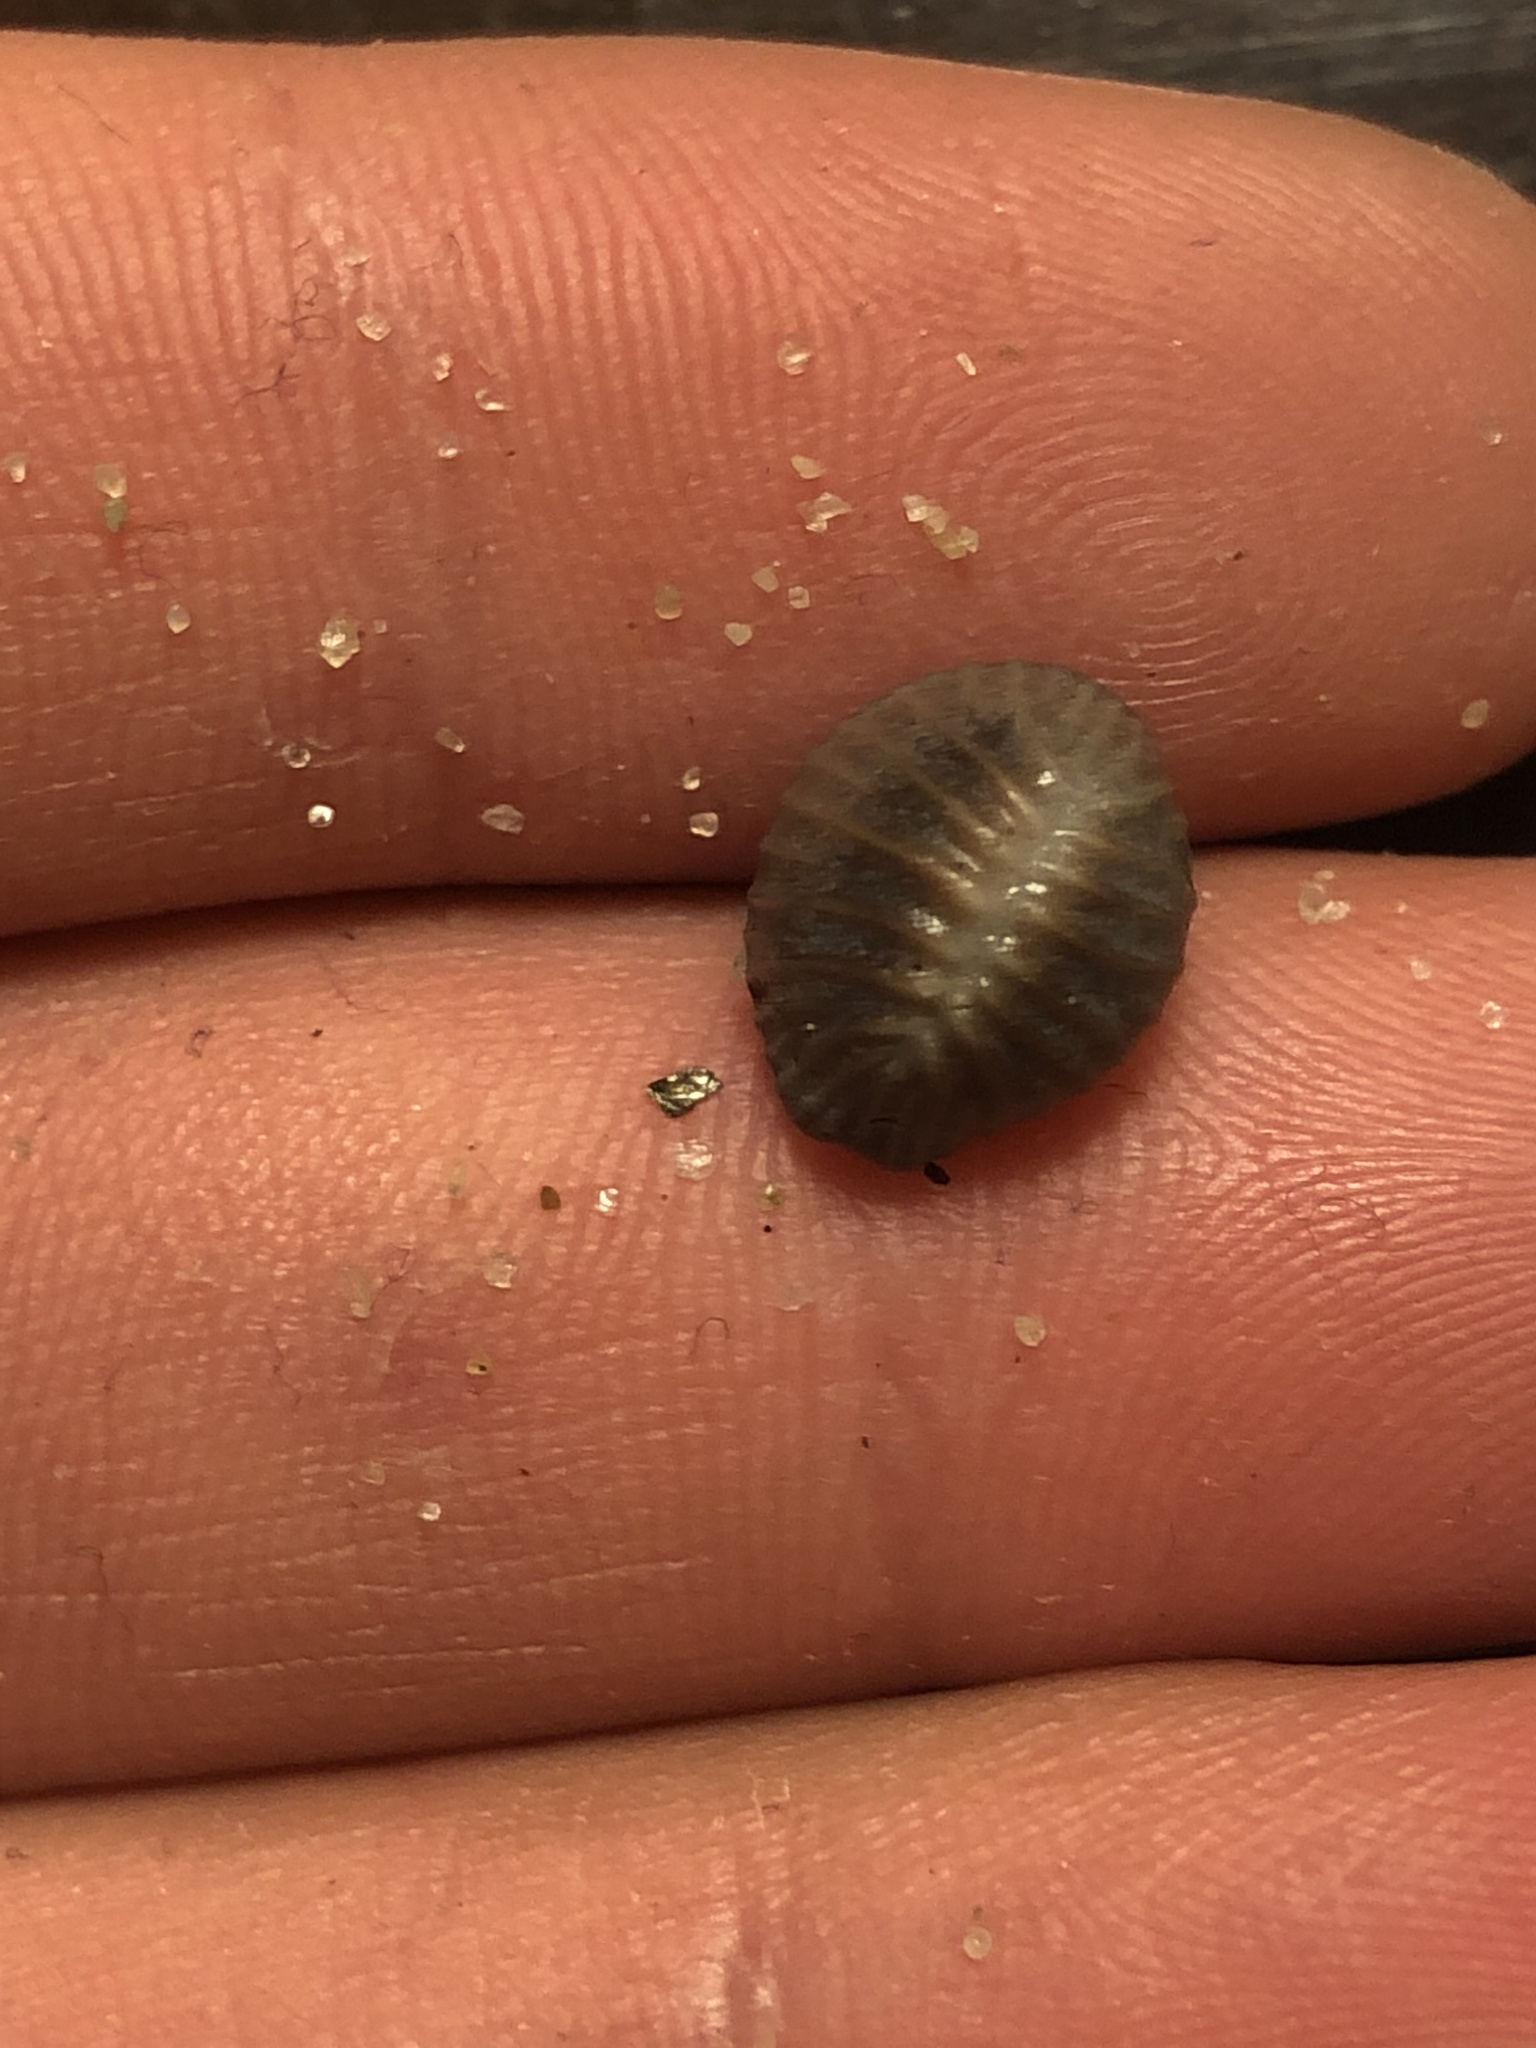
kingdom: Animalia
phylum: Mollusca
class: Gastropoda
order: Littorinimorpha
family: Triviidae
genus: Pseudopusula
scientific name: Pseudopusula californiana
